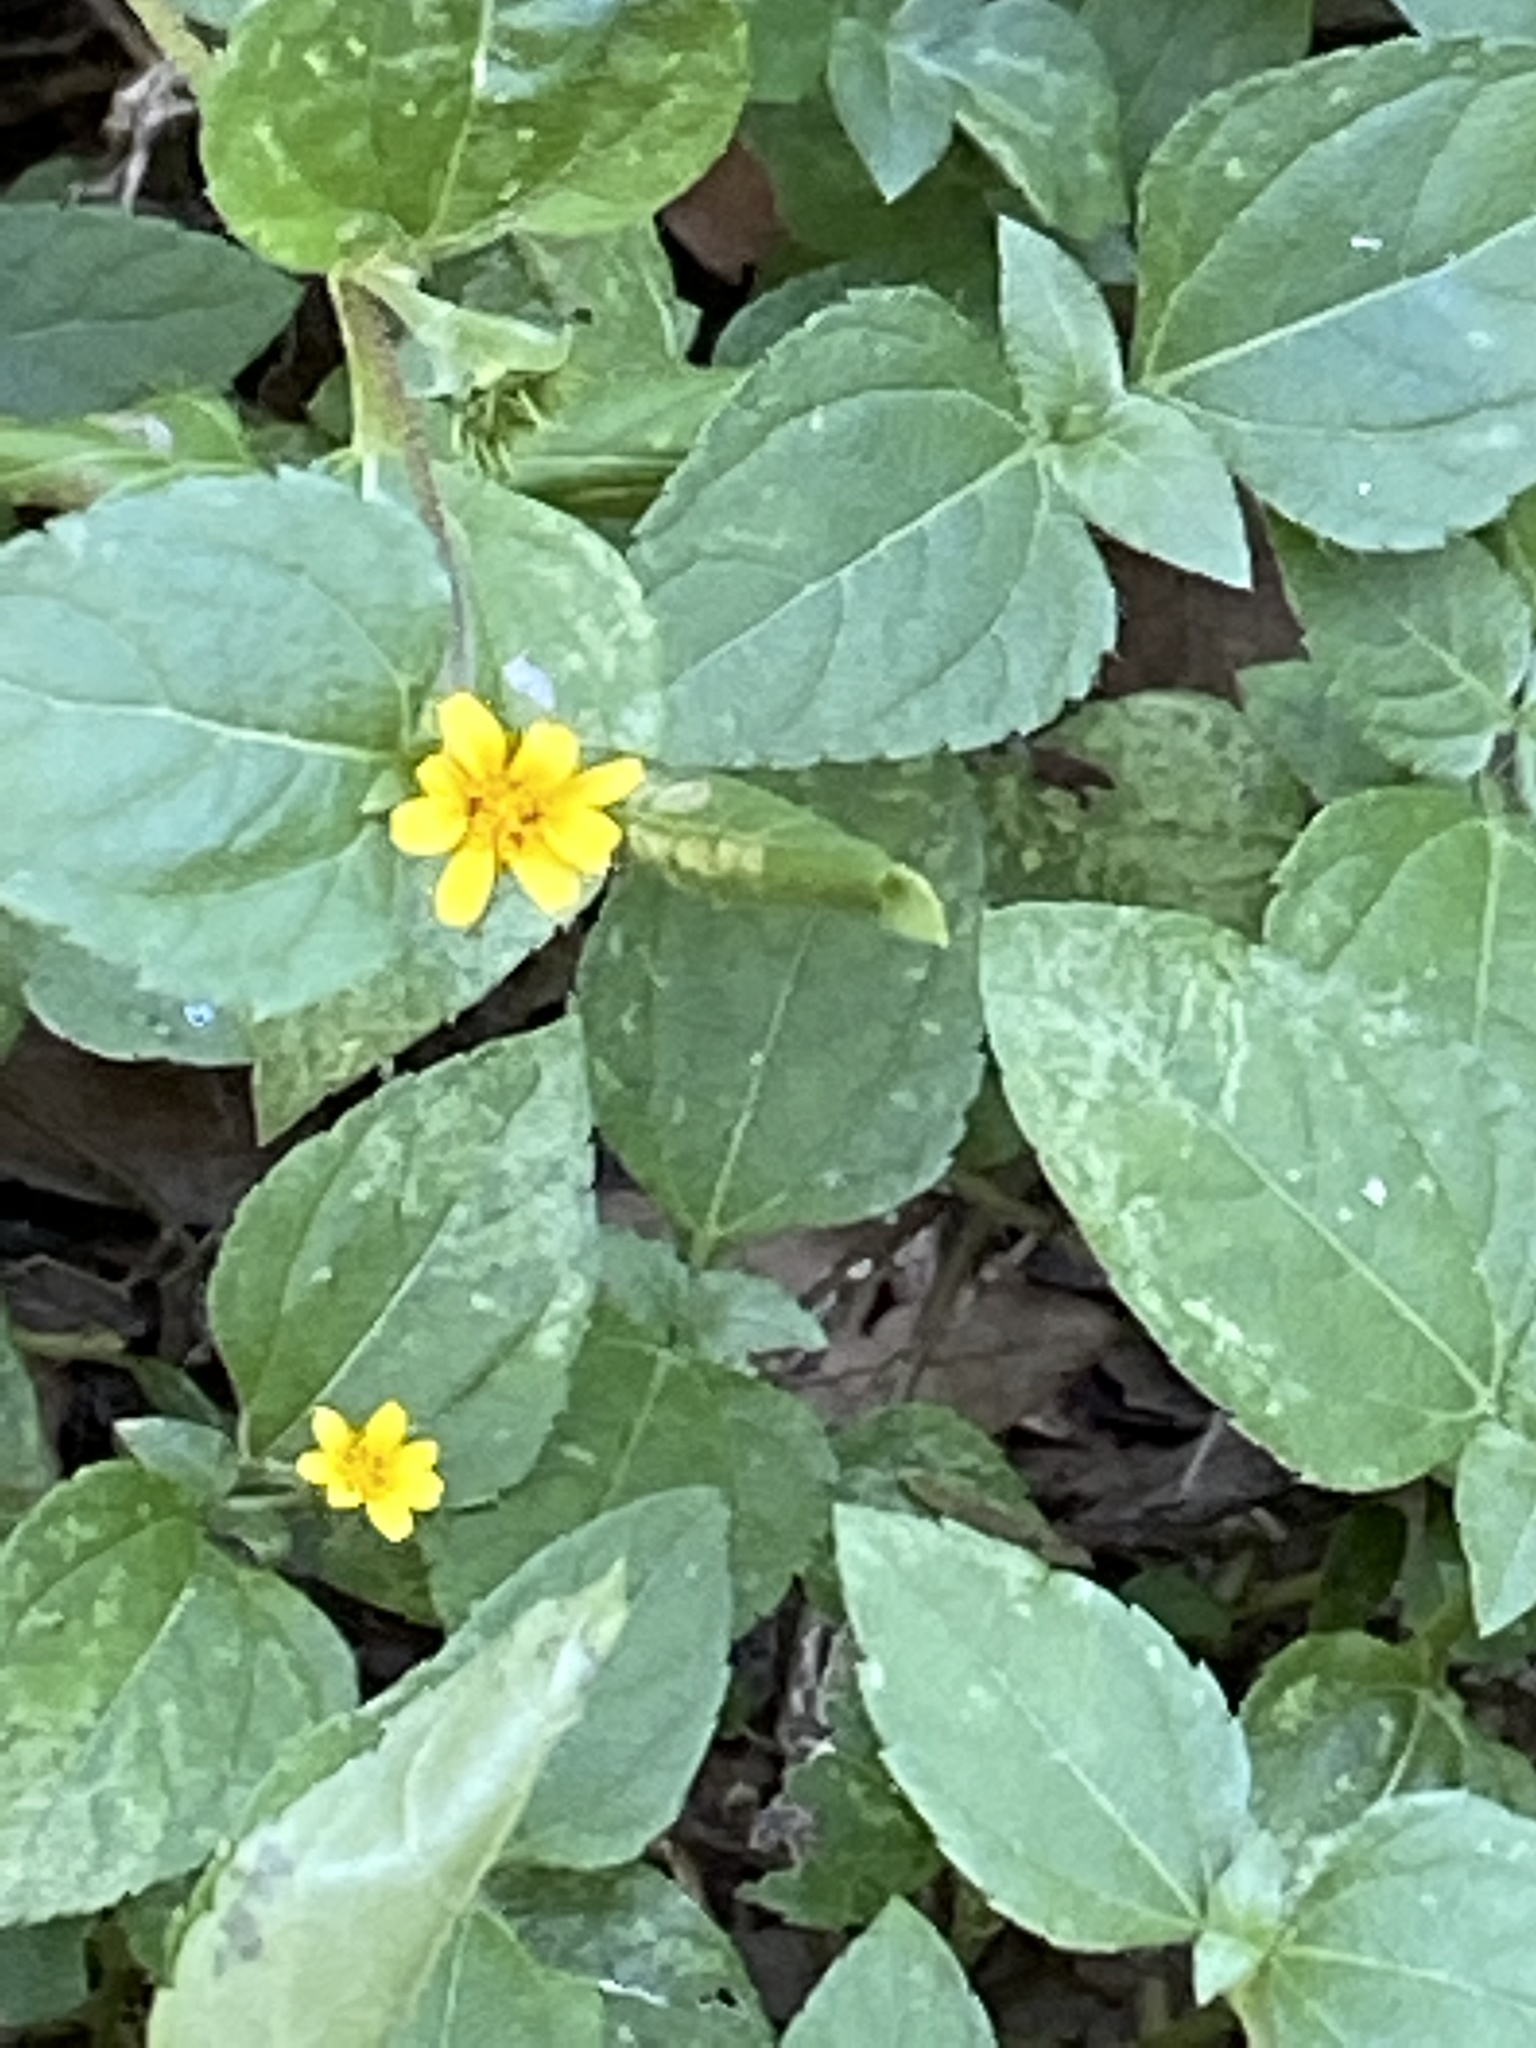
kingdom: Plantae
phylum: Tracheophyta
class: Magnoliopsida
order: Asterales
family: Asteraceae
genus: Calyptocarpus
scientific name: Calyptocarpus vialis
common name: Straggler daisy
